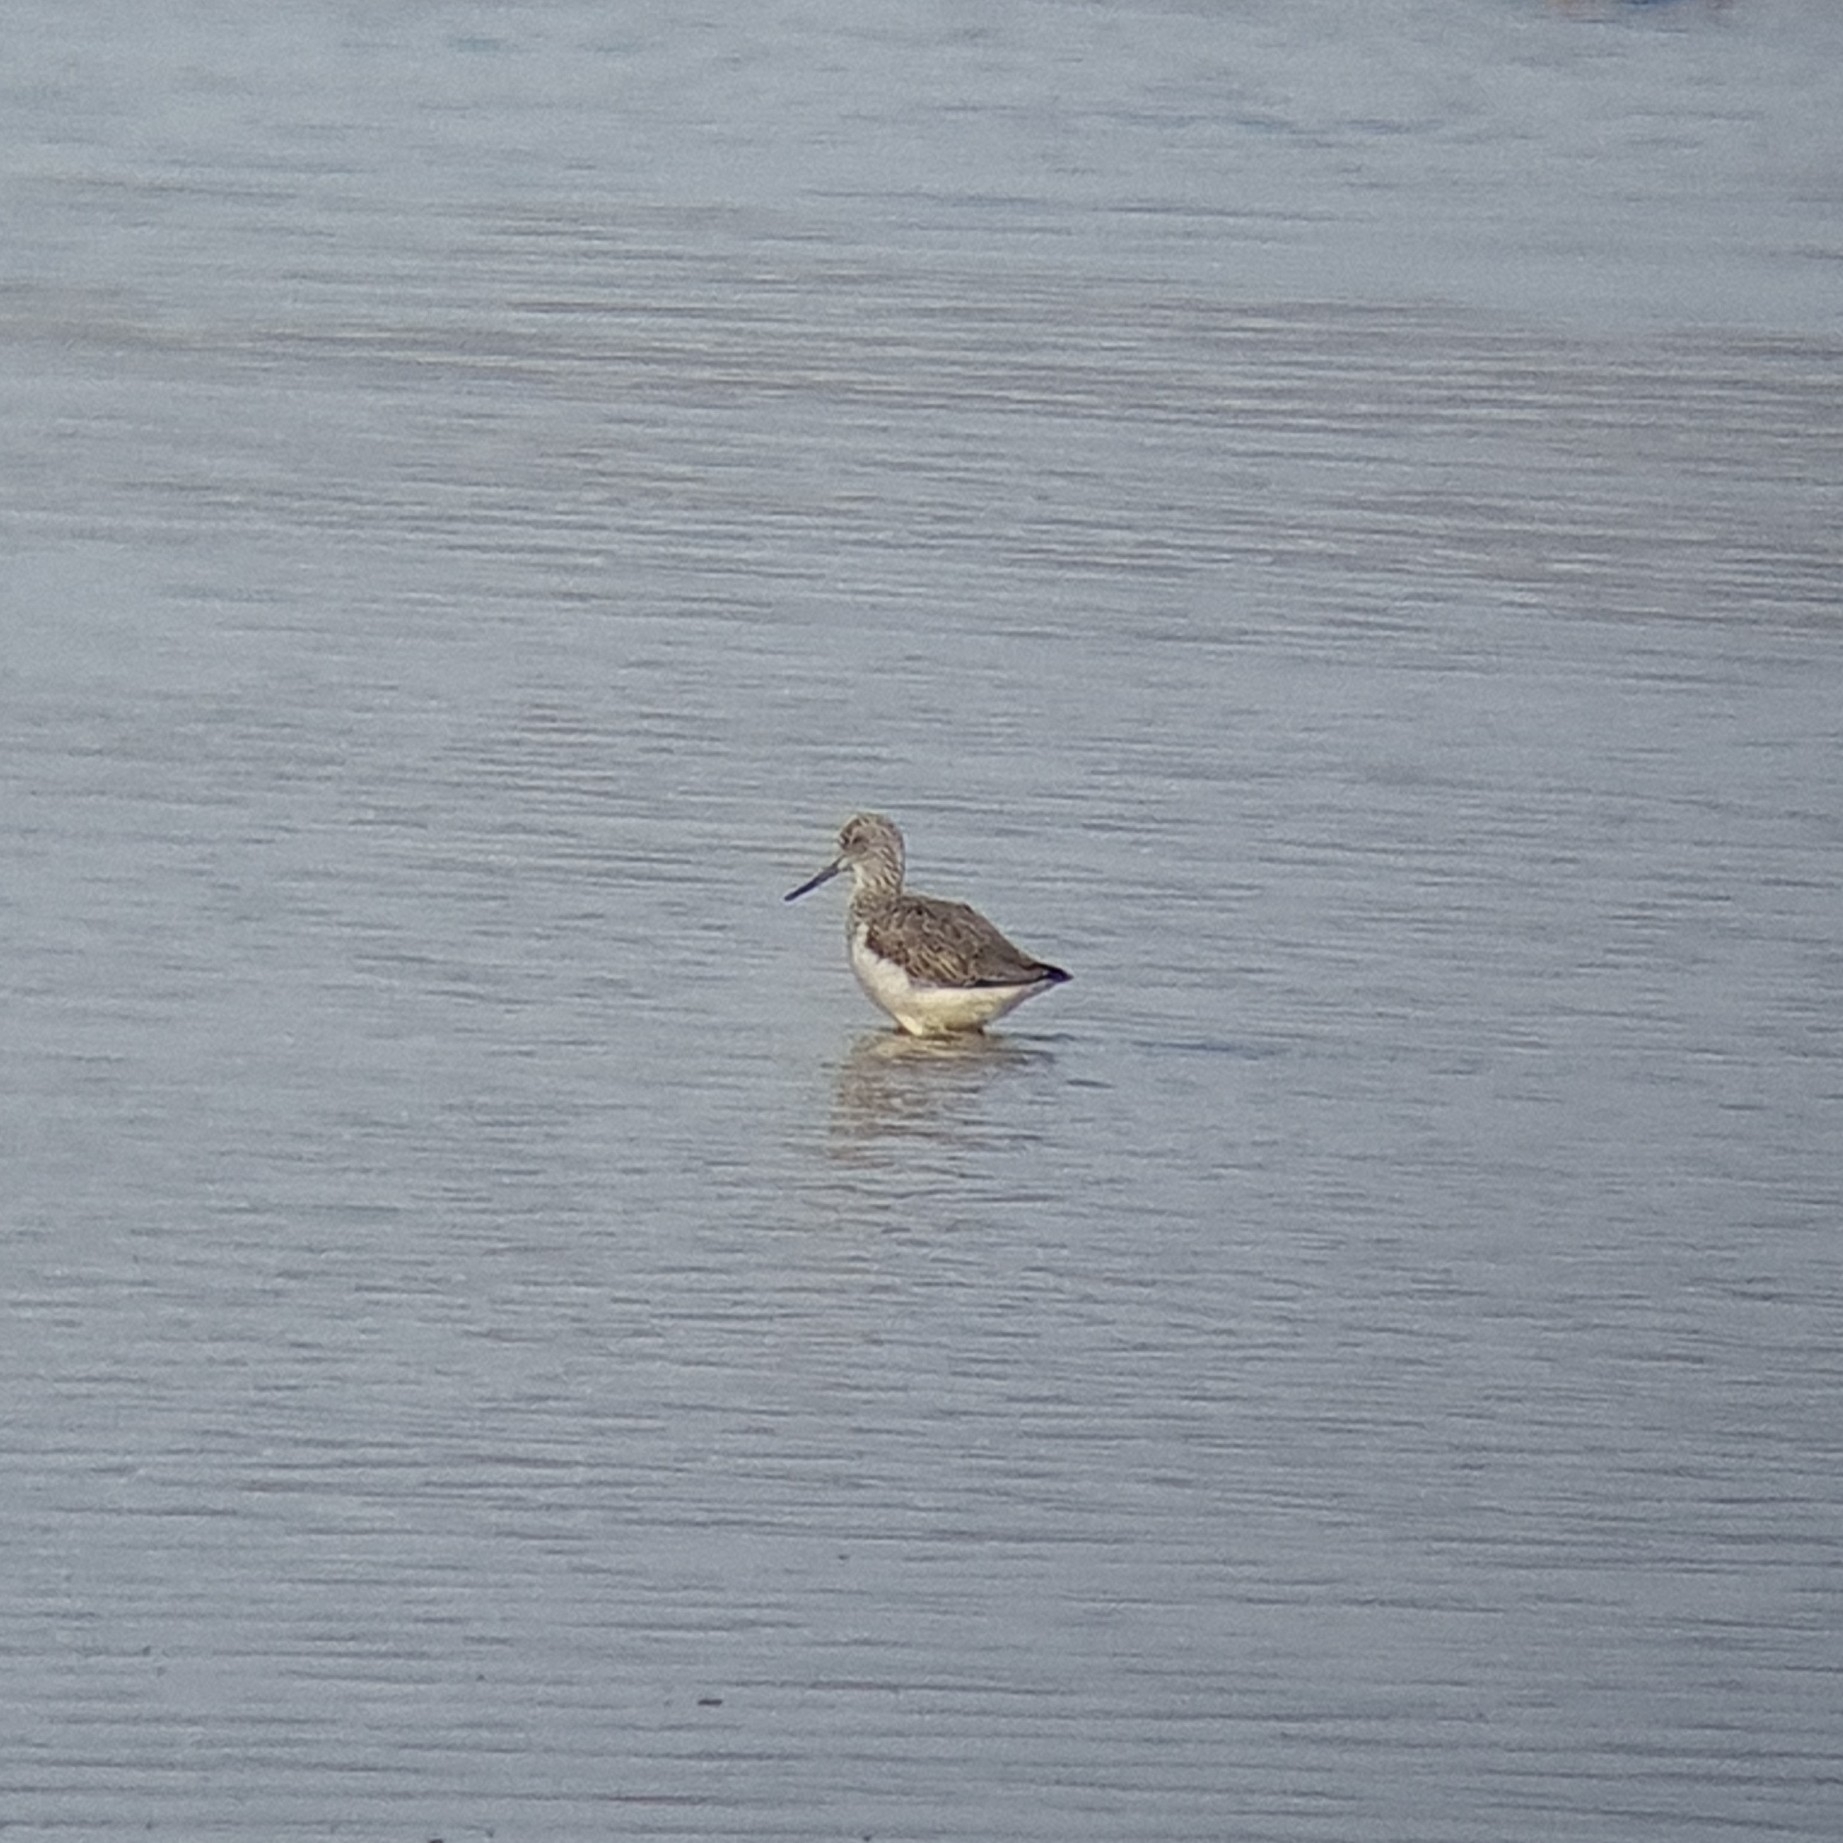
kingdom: Animalia
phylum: Chordata
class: Aves
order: Charadriiformes
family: Scolopacidae
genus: Tringa
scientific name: Tringa nebularia
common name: Common greenshank
